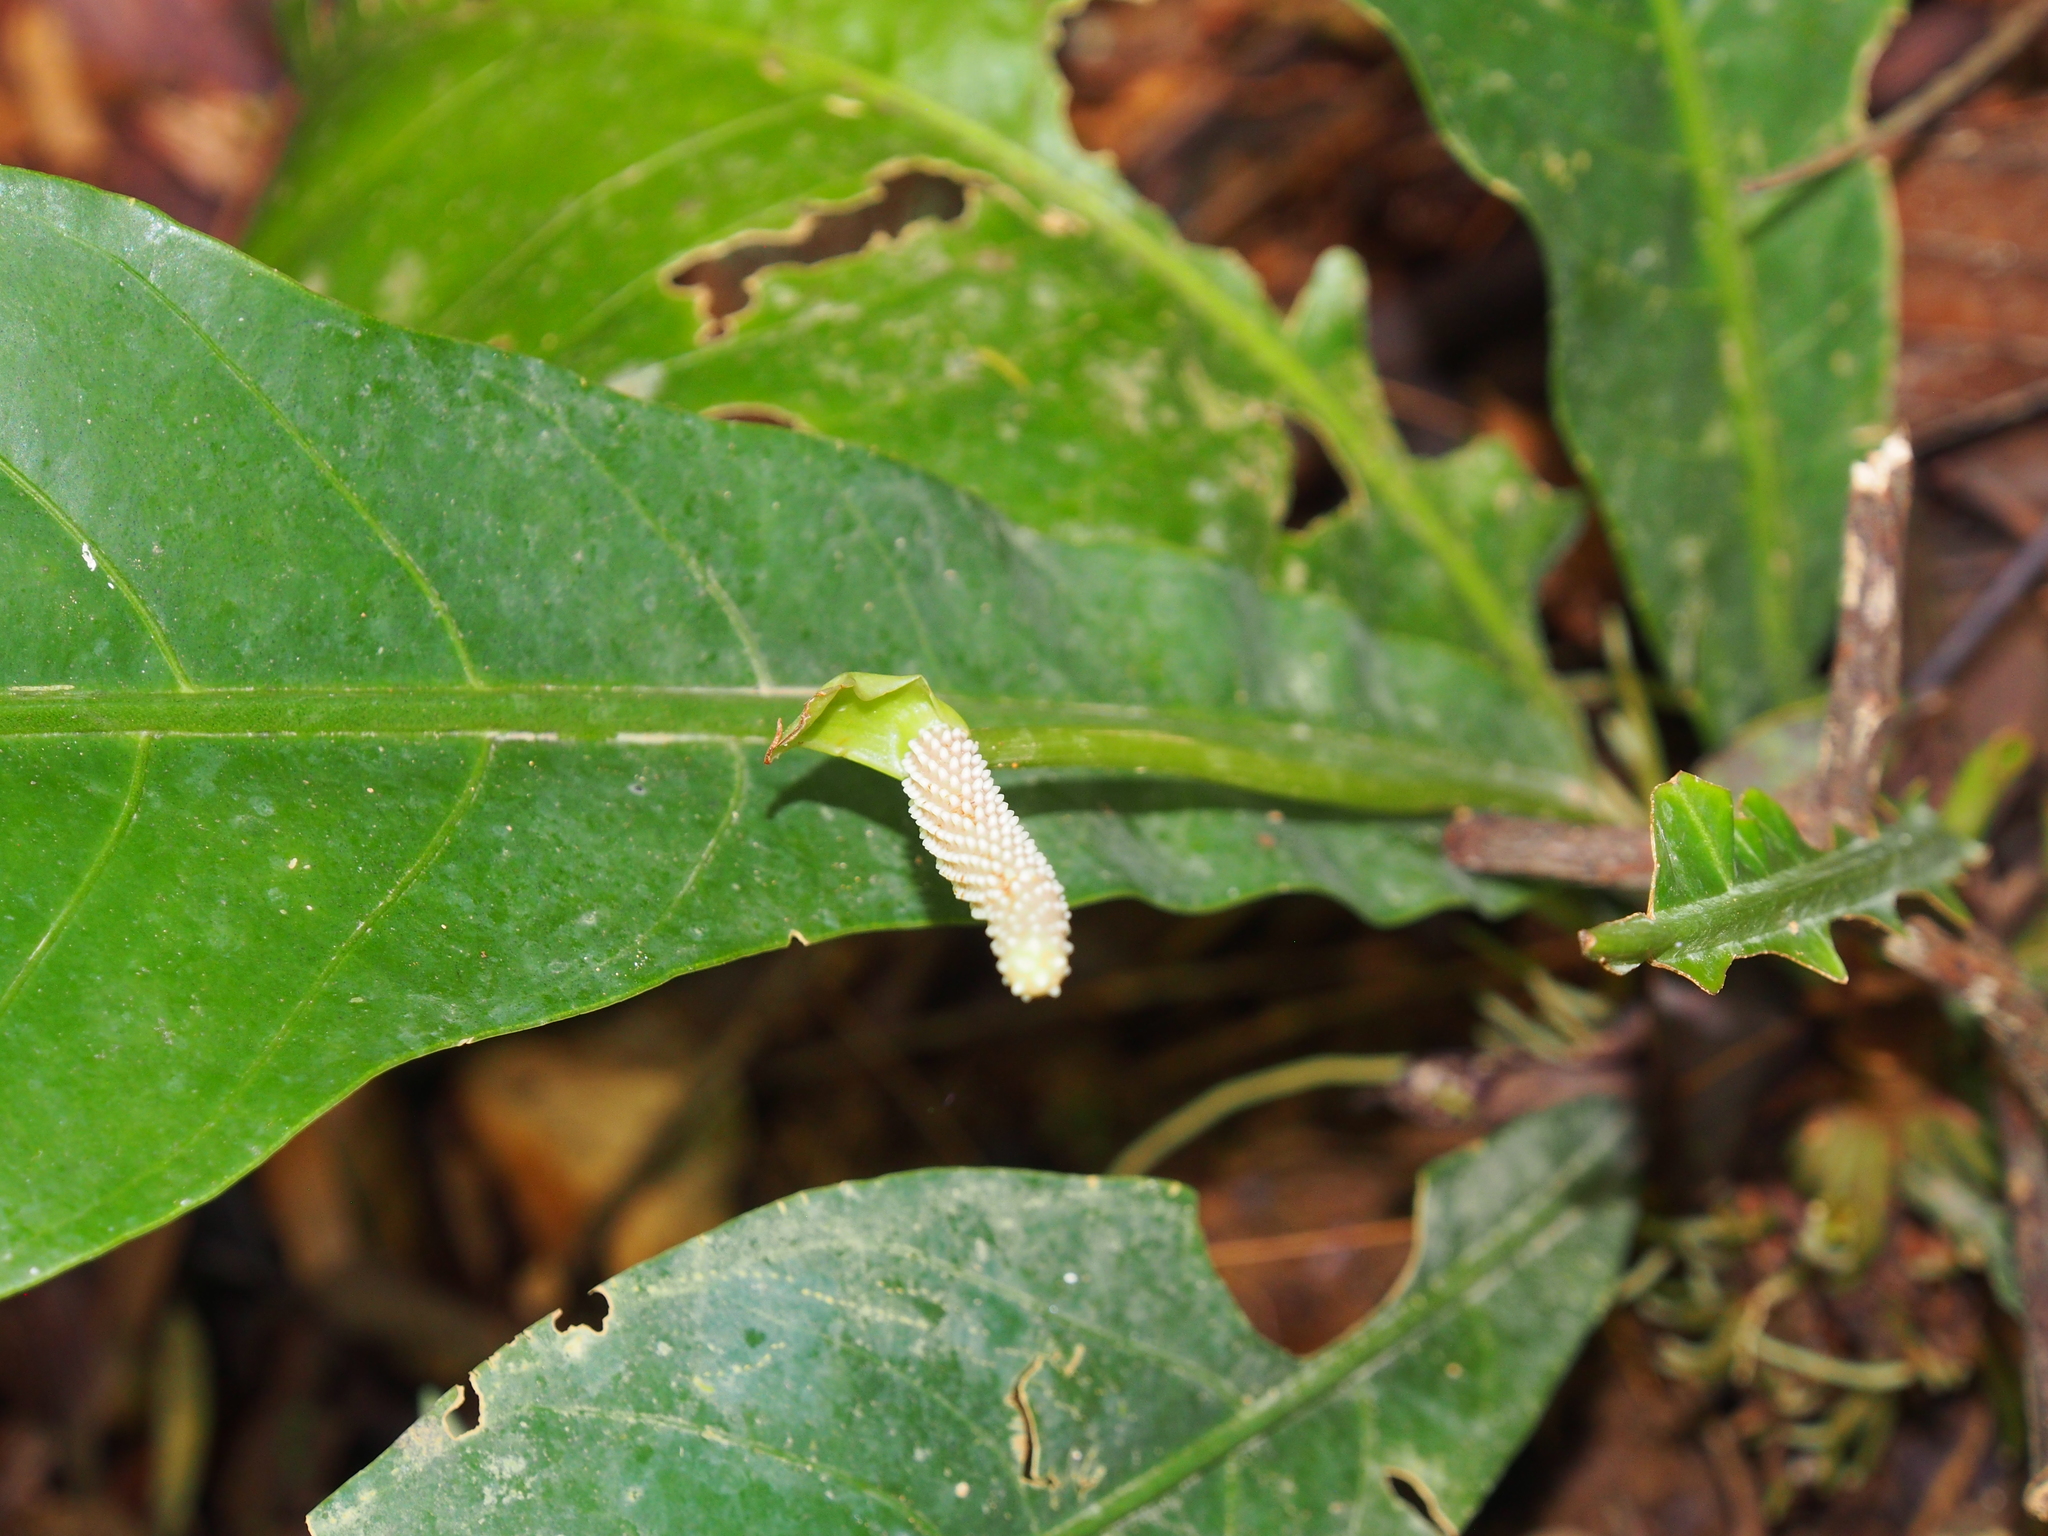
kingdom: Plantae
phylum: Tracheophyta
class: Liliopsida
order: Alismatales
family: Araceae
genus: Anthurium
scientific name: Anthurium consobrinum
